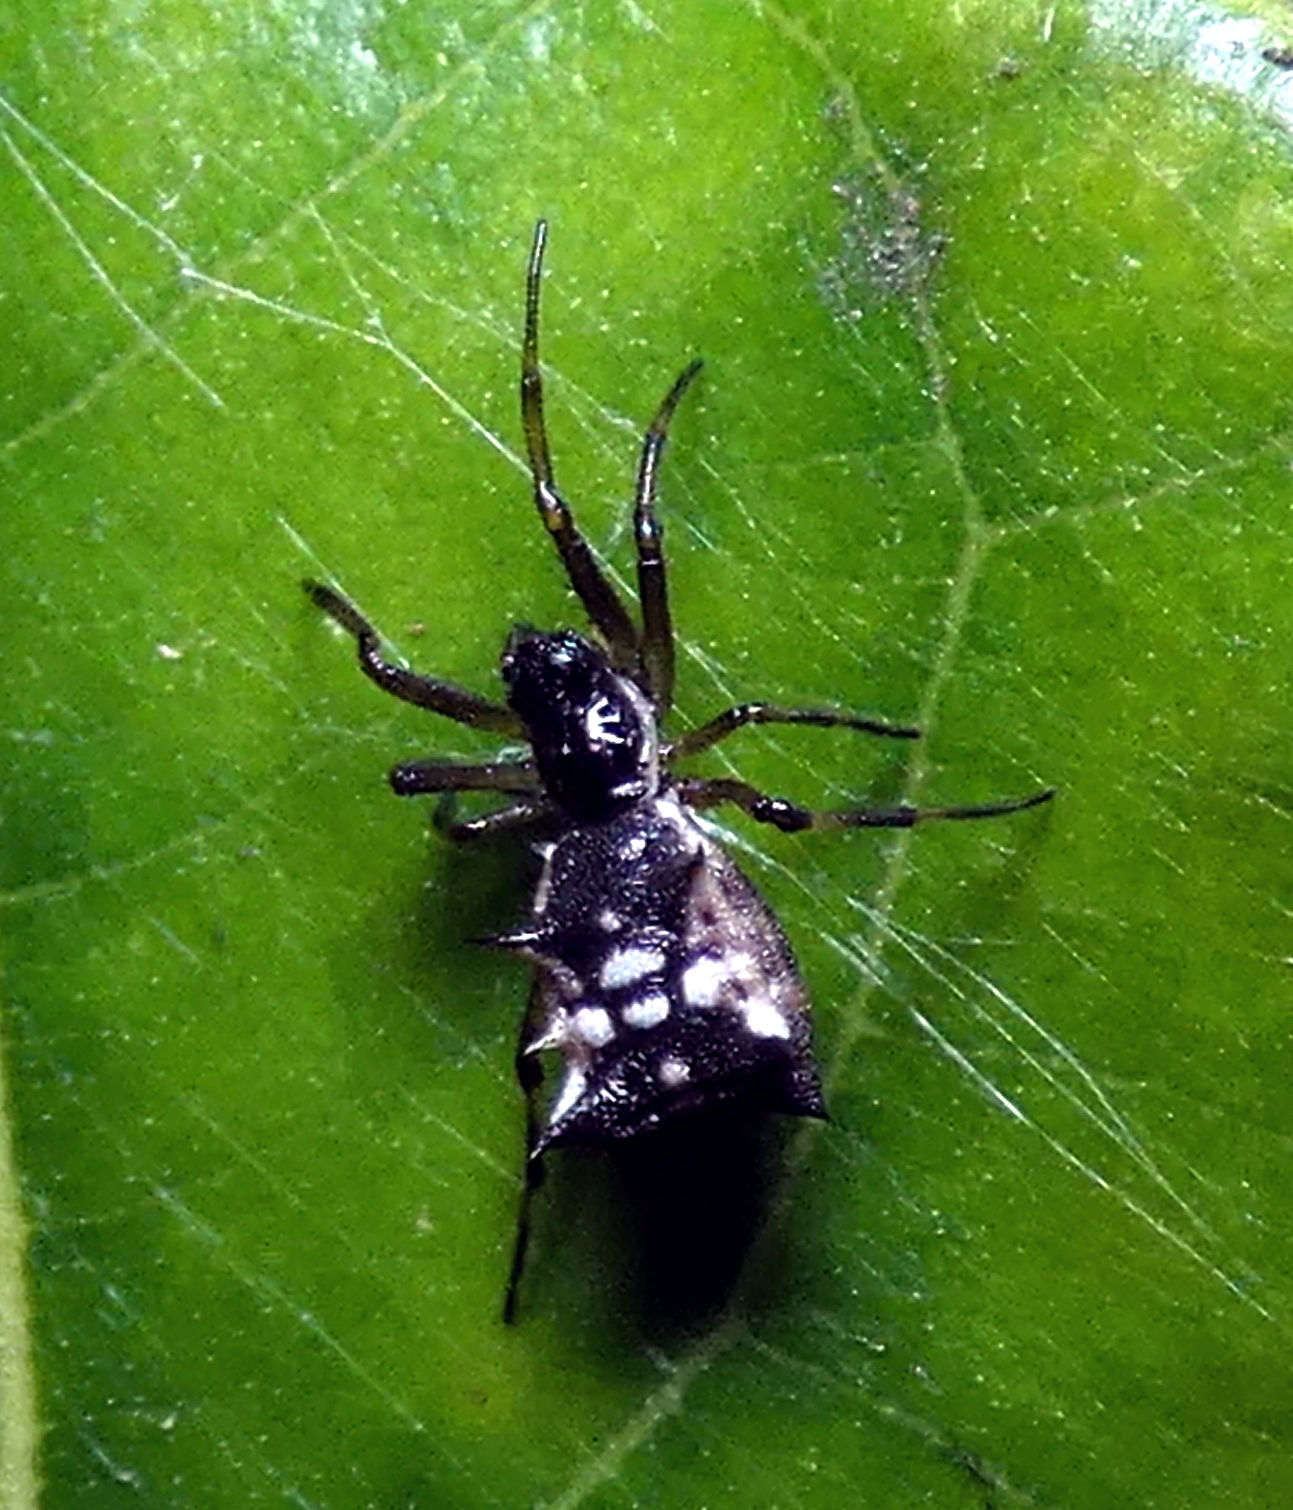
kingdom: Animalia
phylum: Arthropoda
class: Arachnida
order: Araneae
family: Araneidae
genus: Micrathena
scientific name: Micrathena picta
